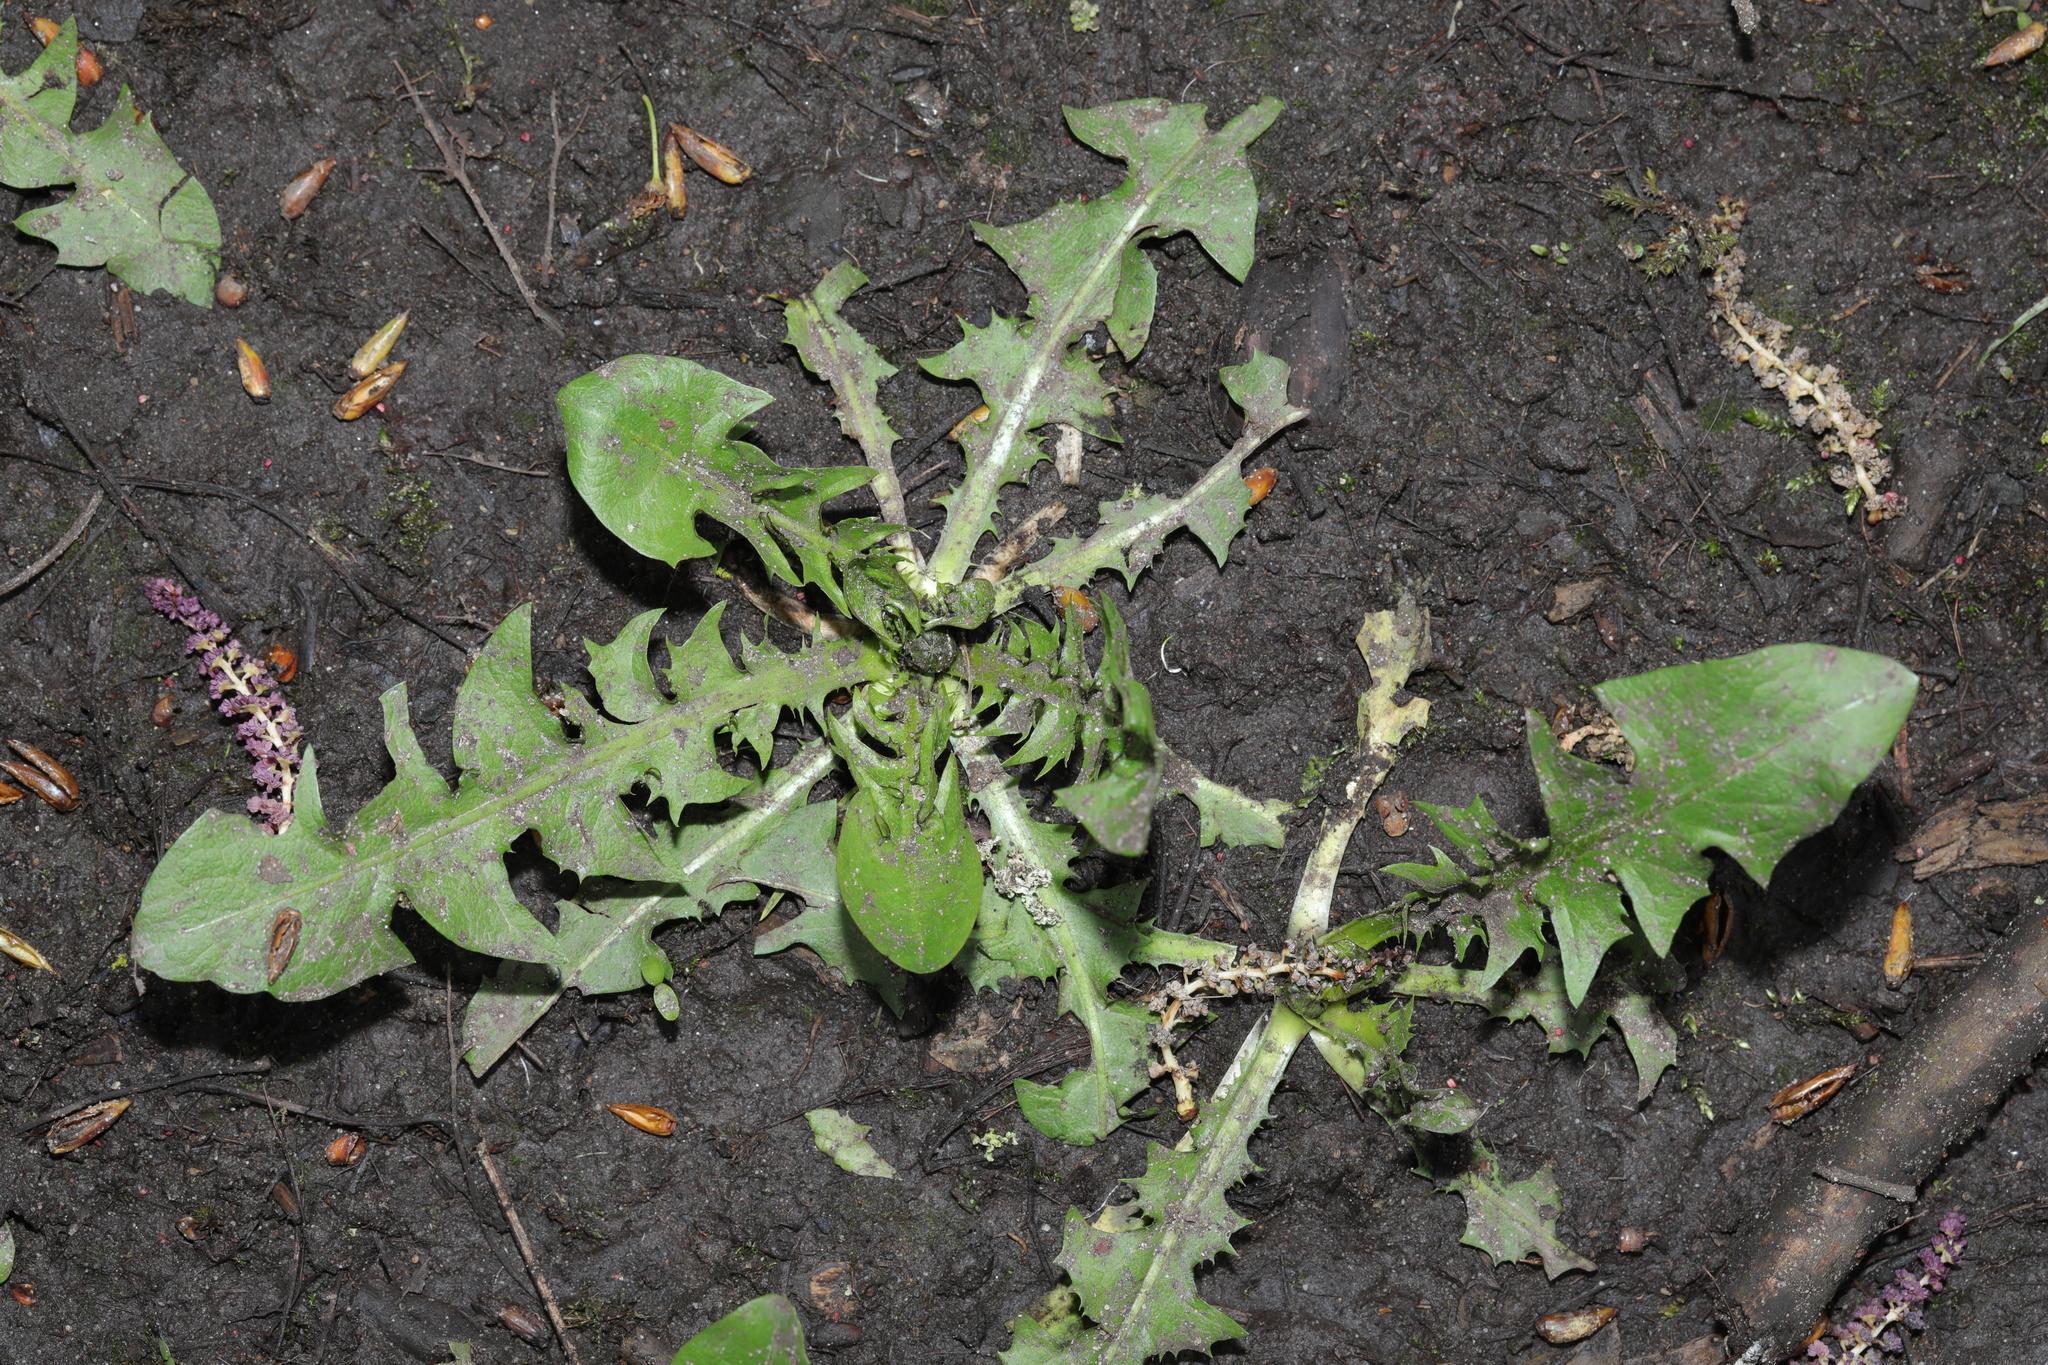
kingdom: Plantae
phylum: Tracheophyta
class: Magnoliopsida
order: Asterales
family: Asteraceae
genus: Taraxacum
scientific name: Taraxacum officinale
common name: Common dandelion
